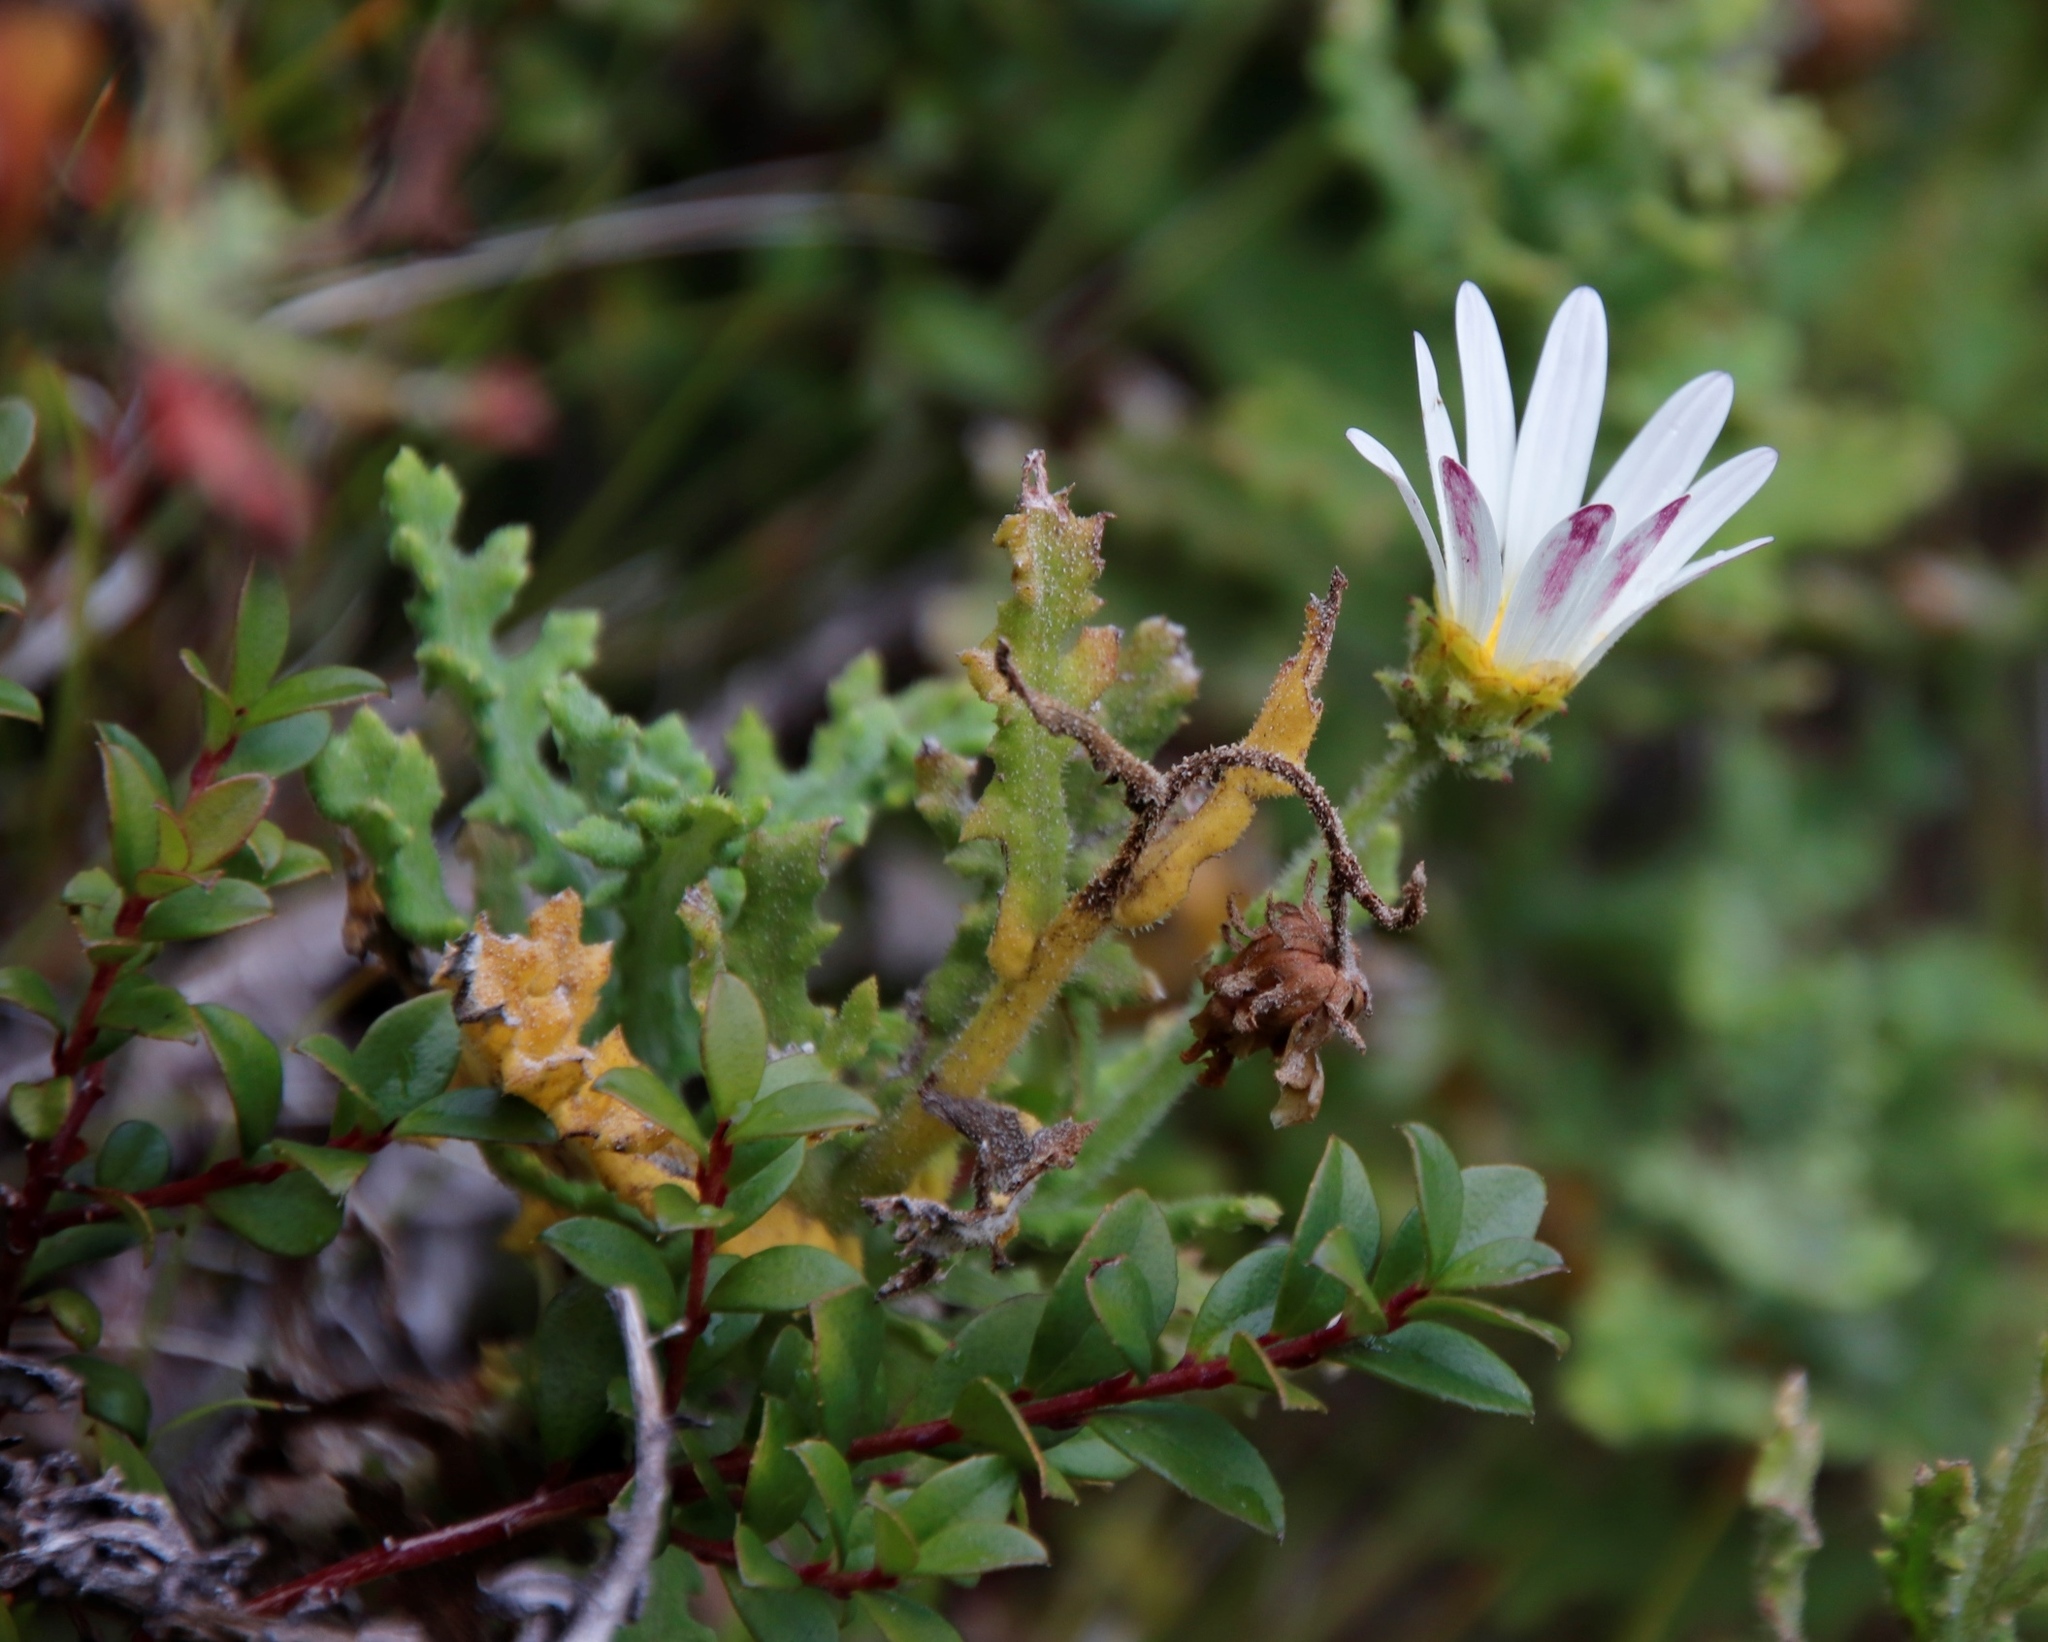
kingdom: Plantae
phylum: Tracheophyta
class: Magnoliopsida
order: Asterales
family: Asteraceae
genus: Arctotis
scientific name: Arctotis aspera
